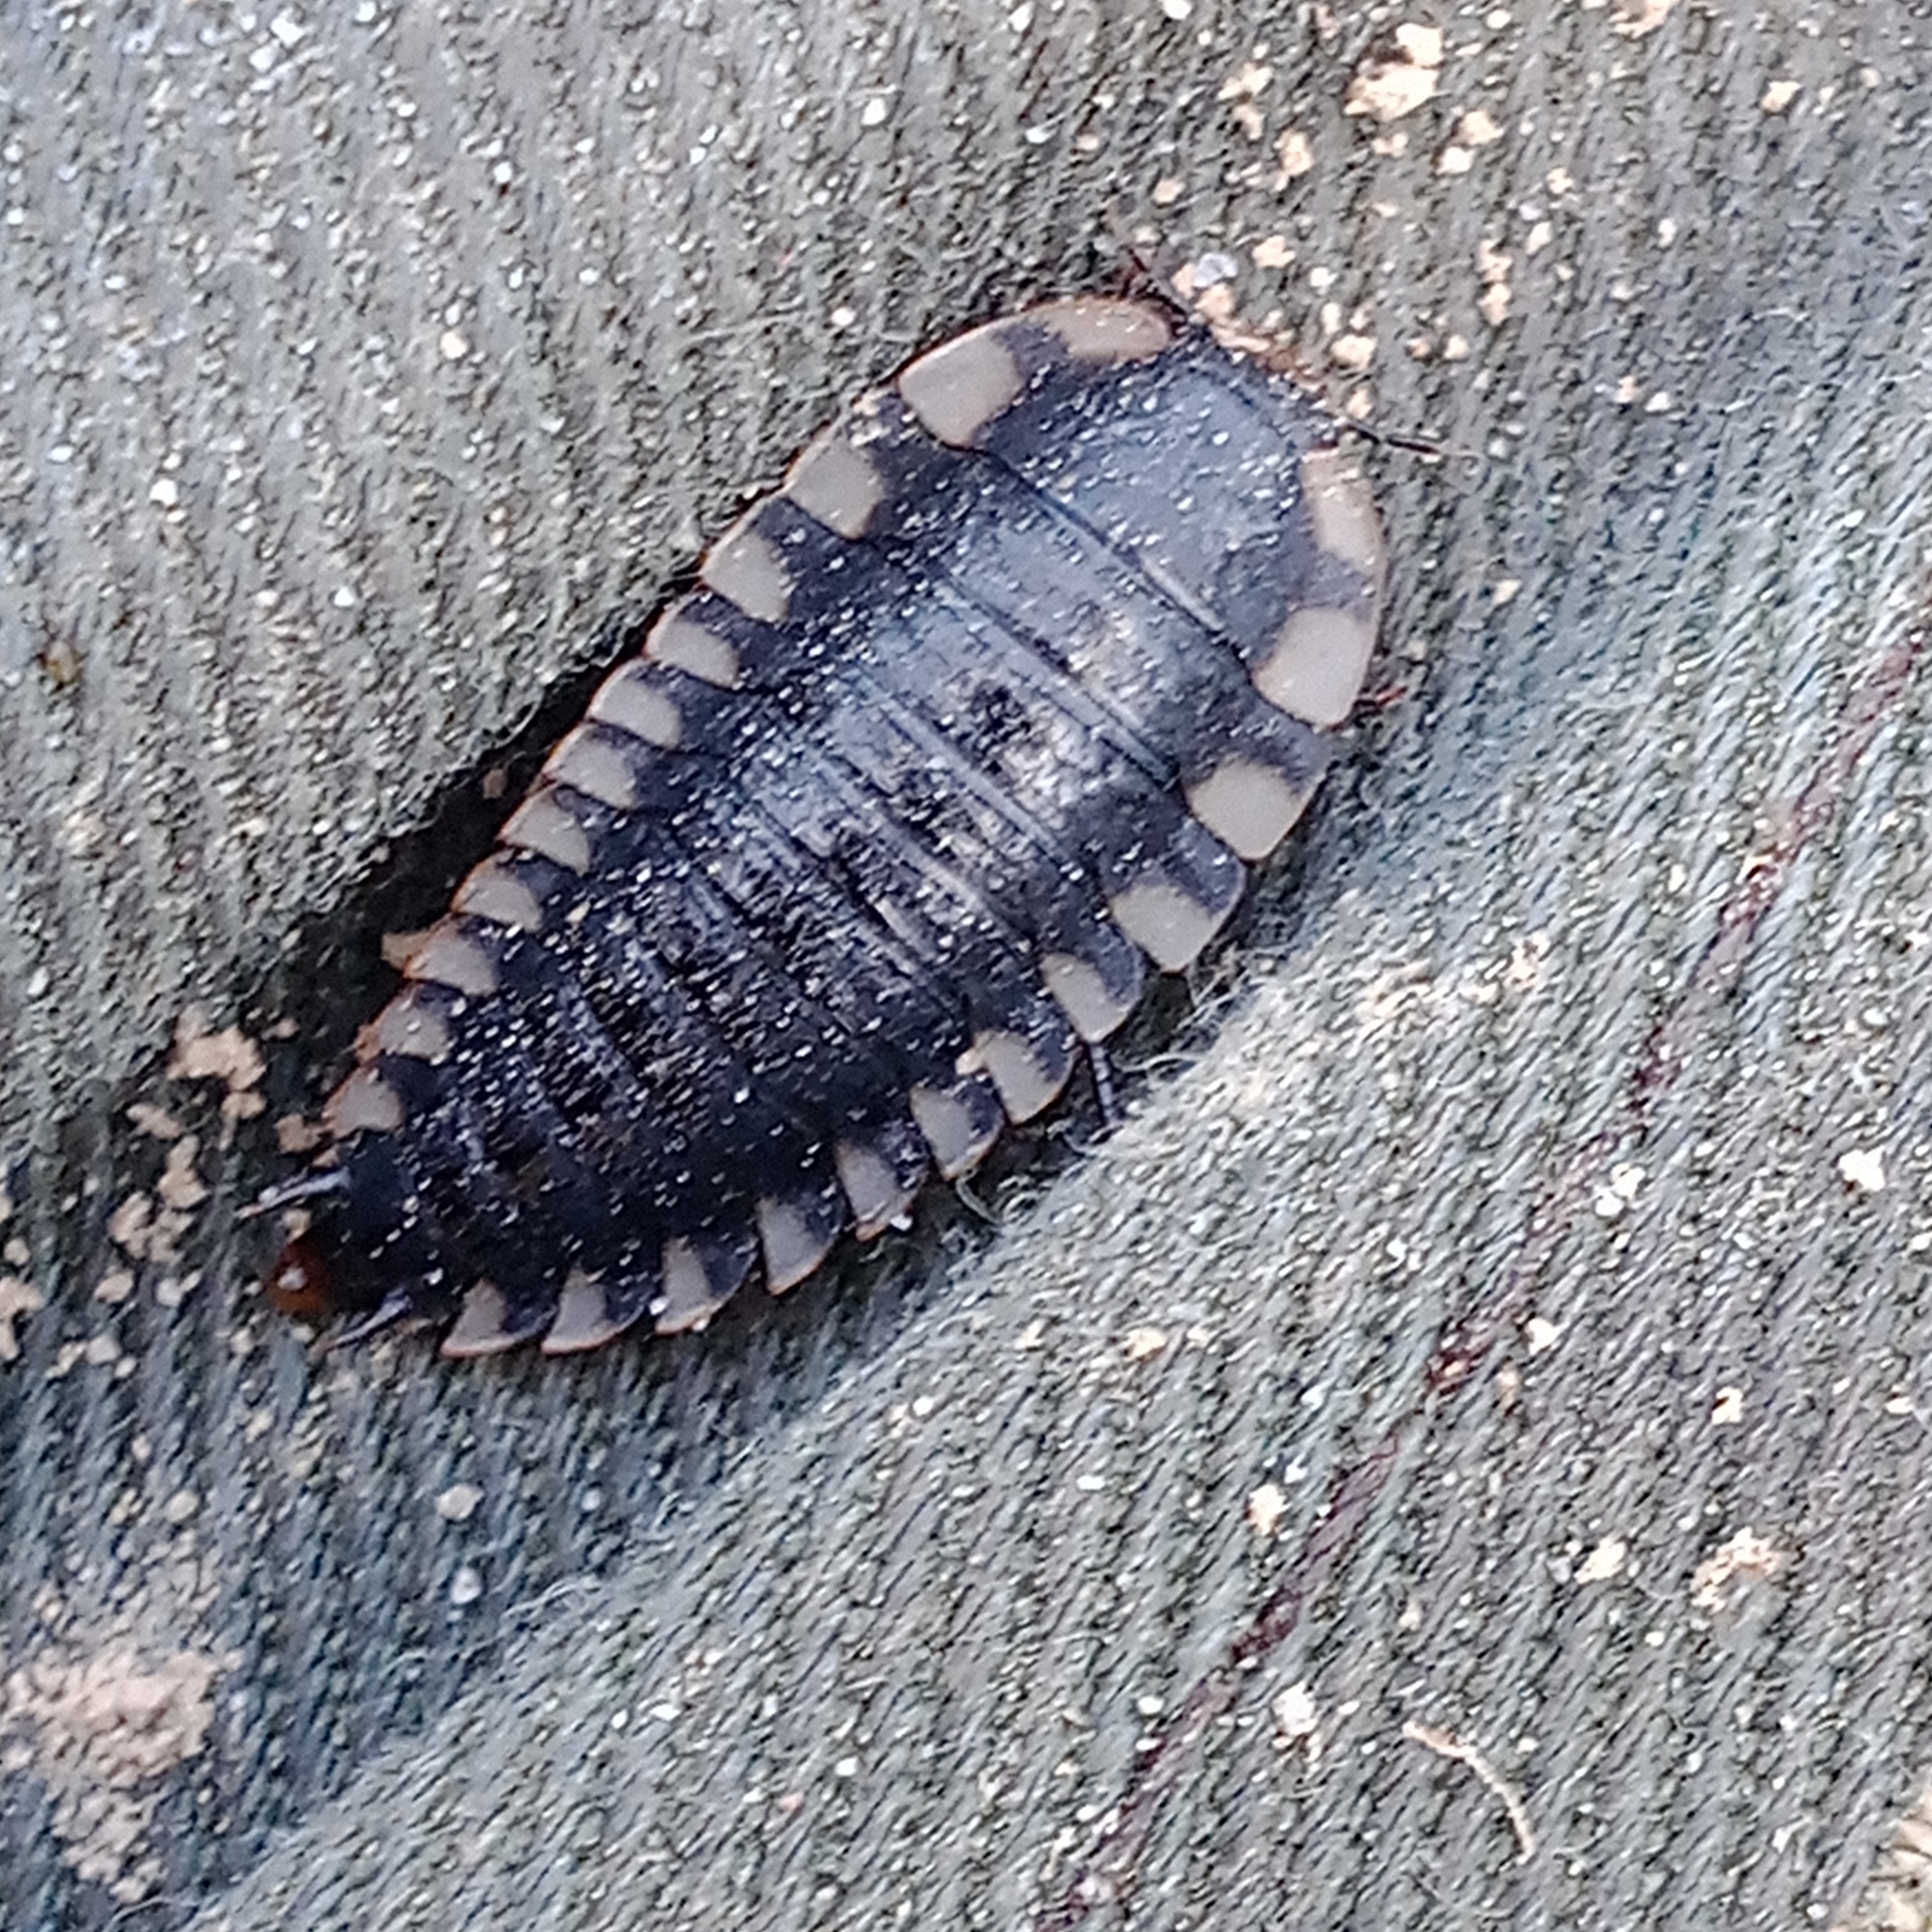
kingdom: Animalia
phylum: Arthropoda
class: Insecta
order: Coleoptera
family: Staphylinidae
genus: Oiceoptoma
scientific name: Oiceoptoma thoracicum
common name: Red-breasted carrion beetle
